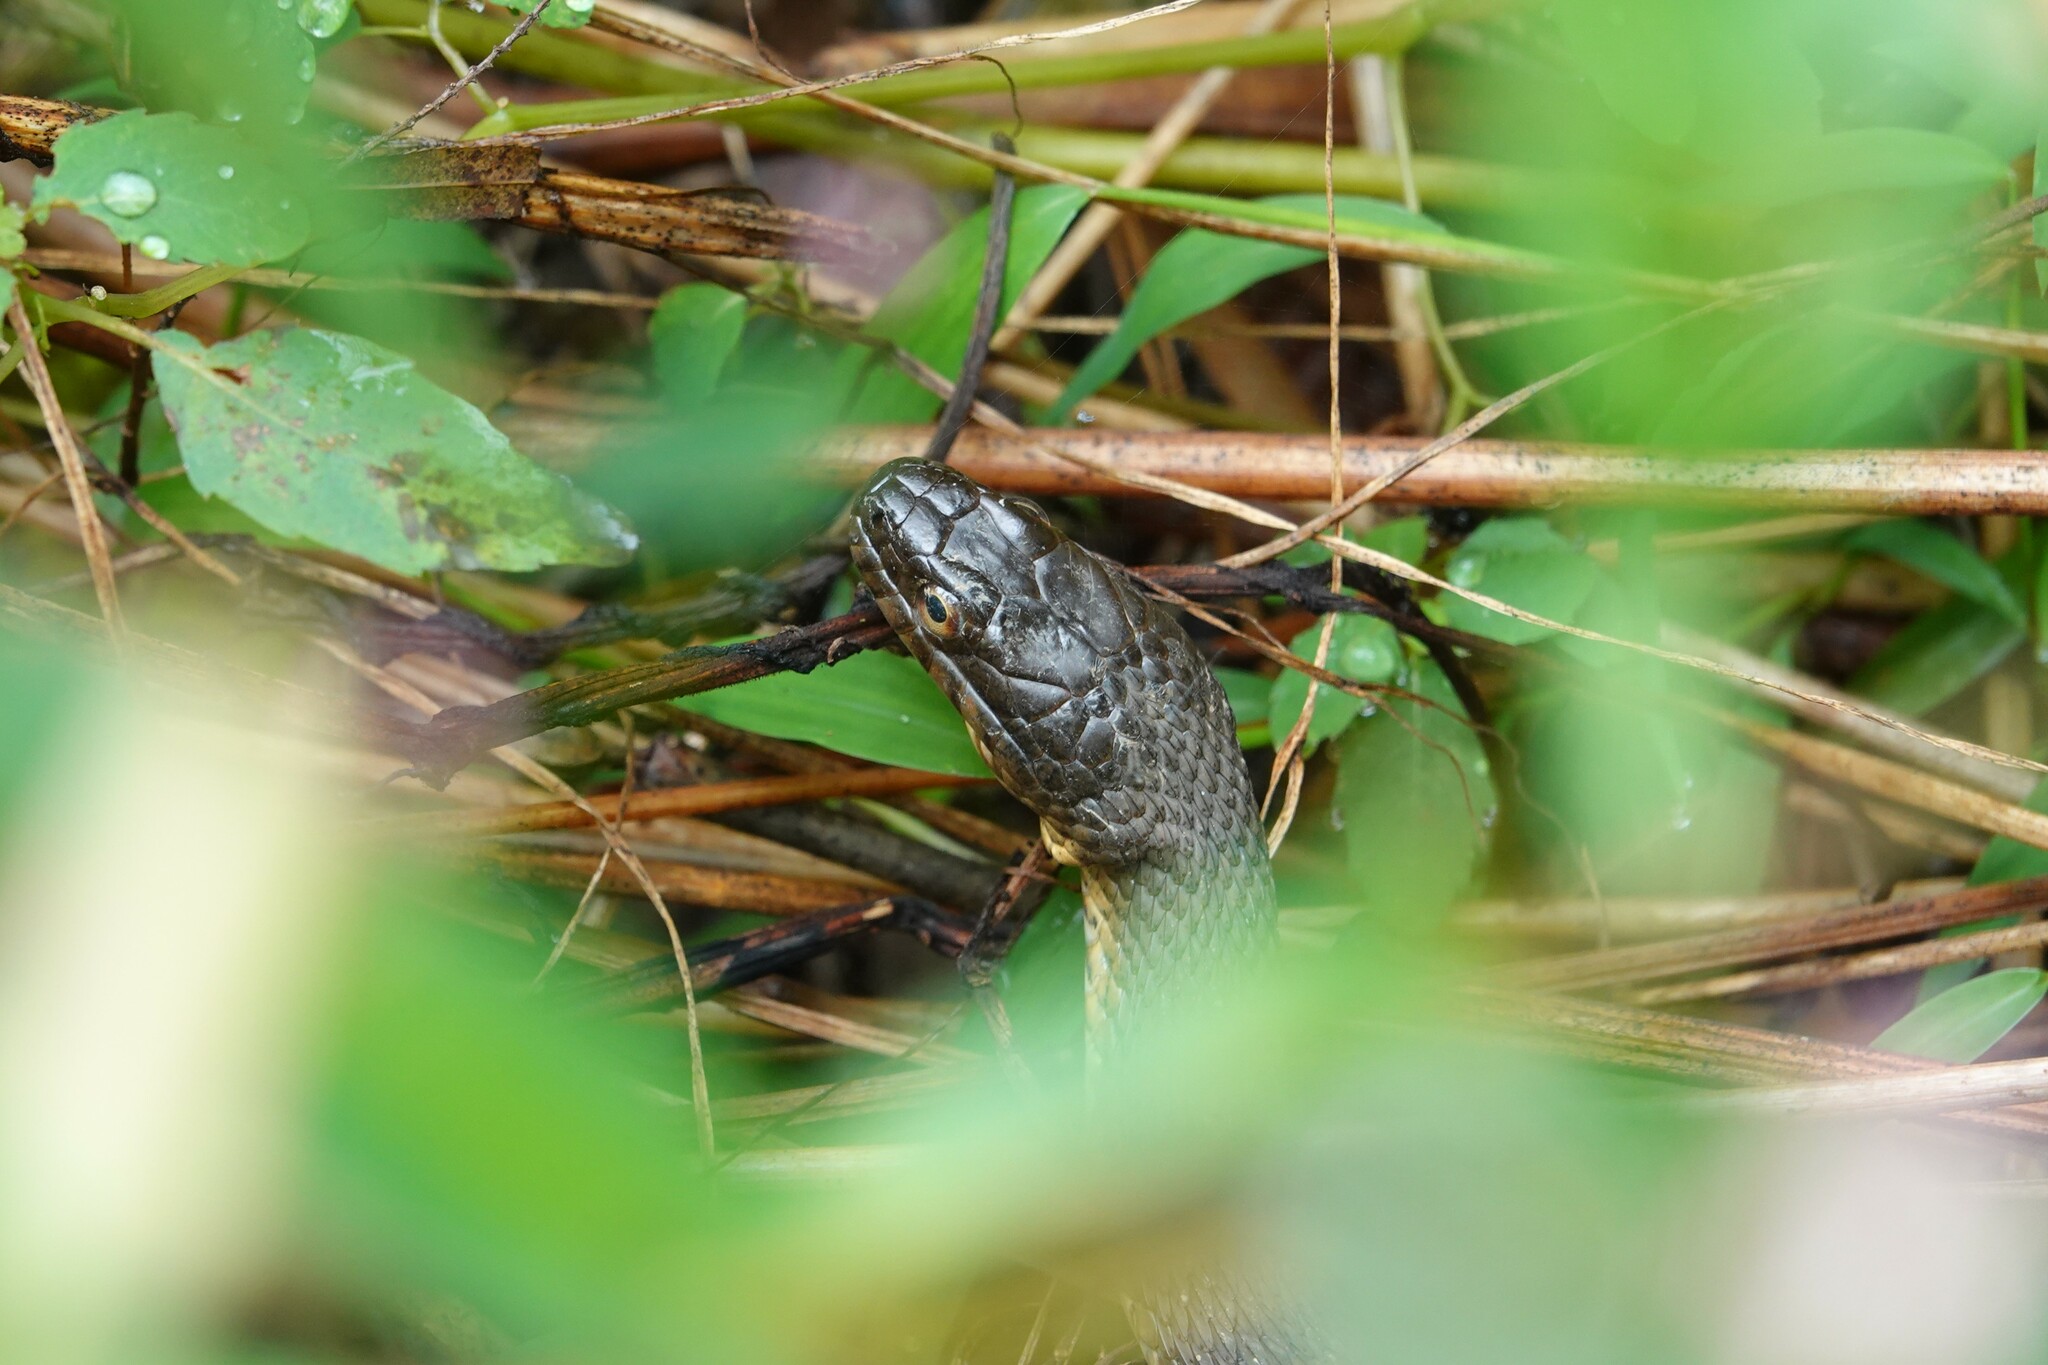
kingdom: Animalia
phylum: Chordata
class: Squamata
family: Colubridae
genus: Nerodia
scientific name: Nerodia sipedon
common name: Northern water snake
